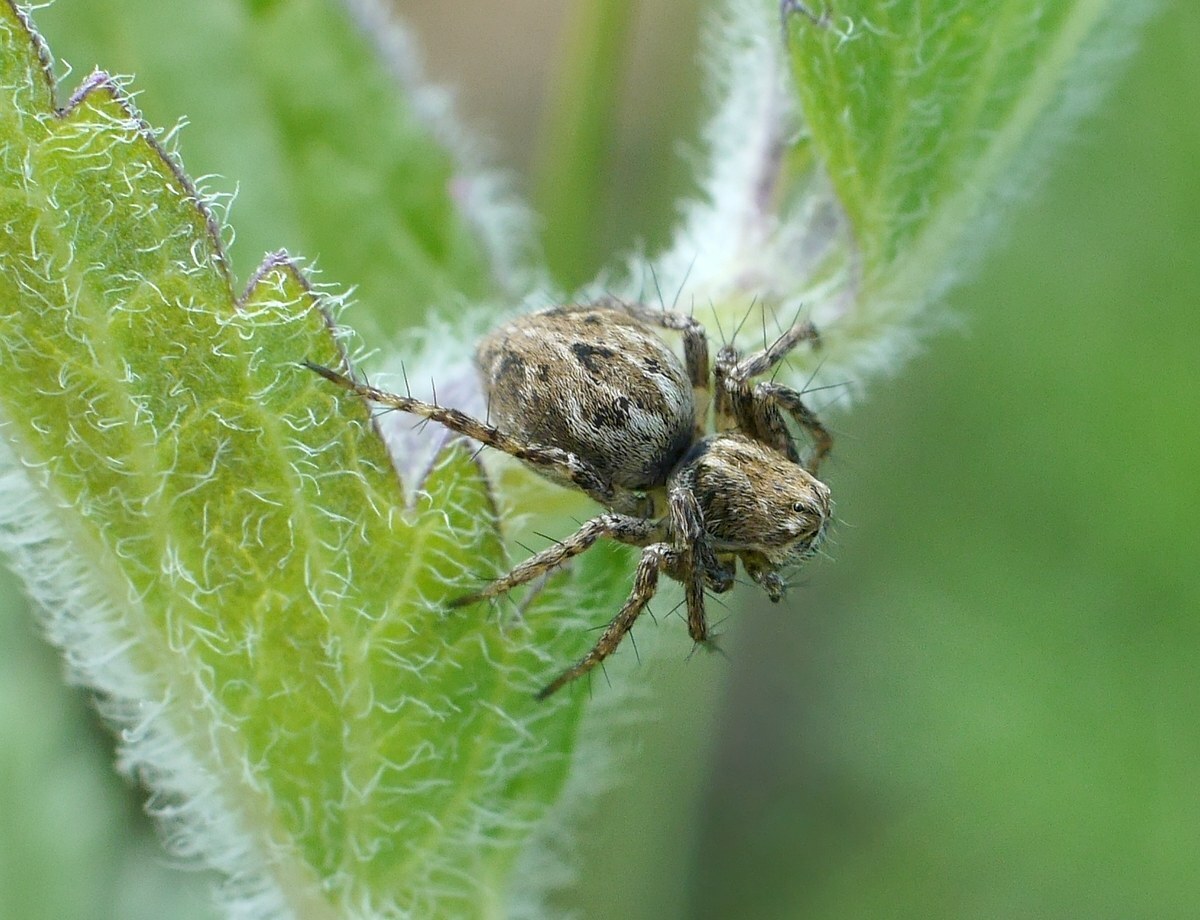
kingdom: Animalia
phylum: Arthropoda
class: Arachnida
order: Araneae
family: Oxyopidae
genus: Oxyopes
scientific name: Oxyopes heterophthalmus
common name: Lynx spider
